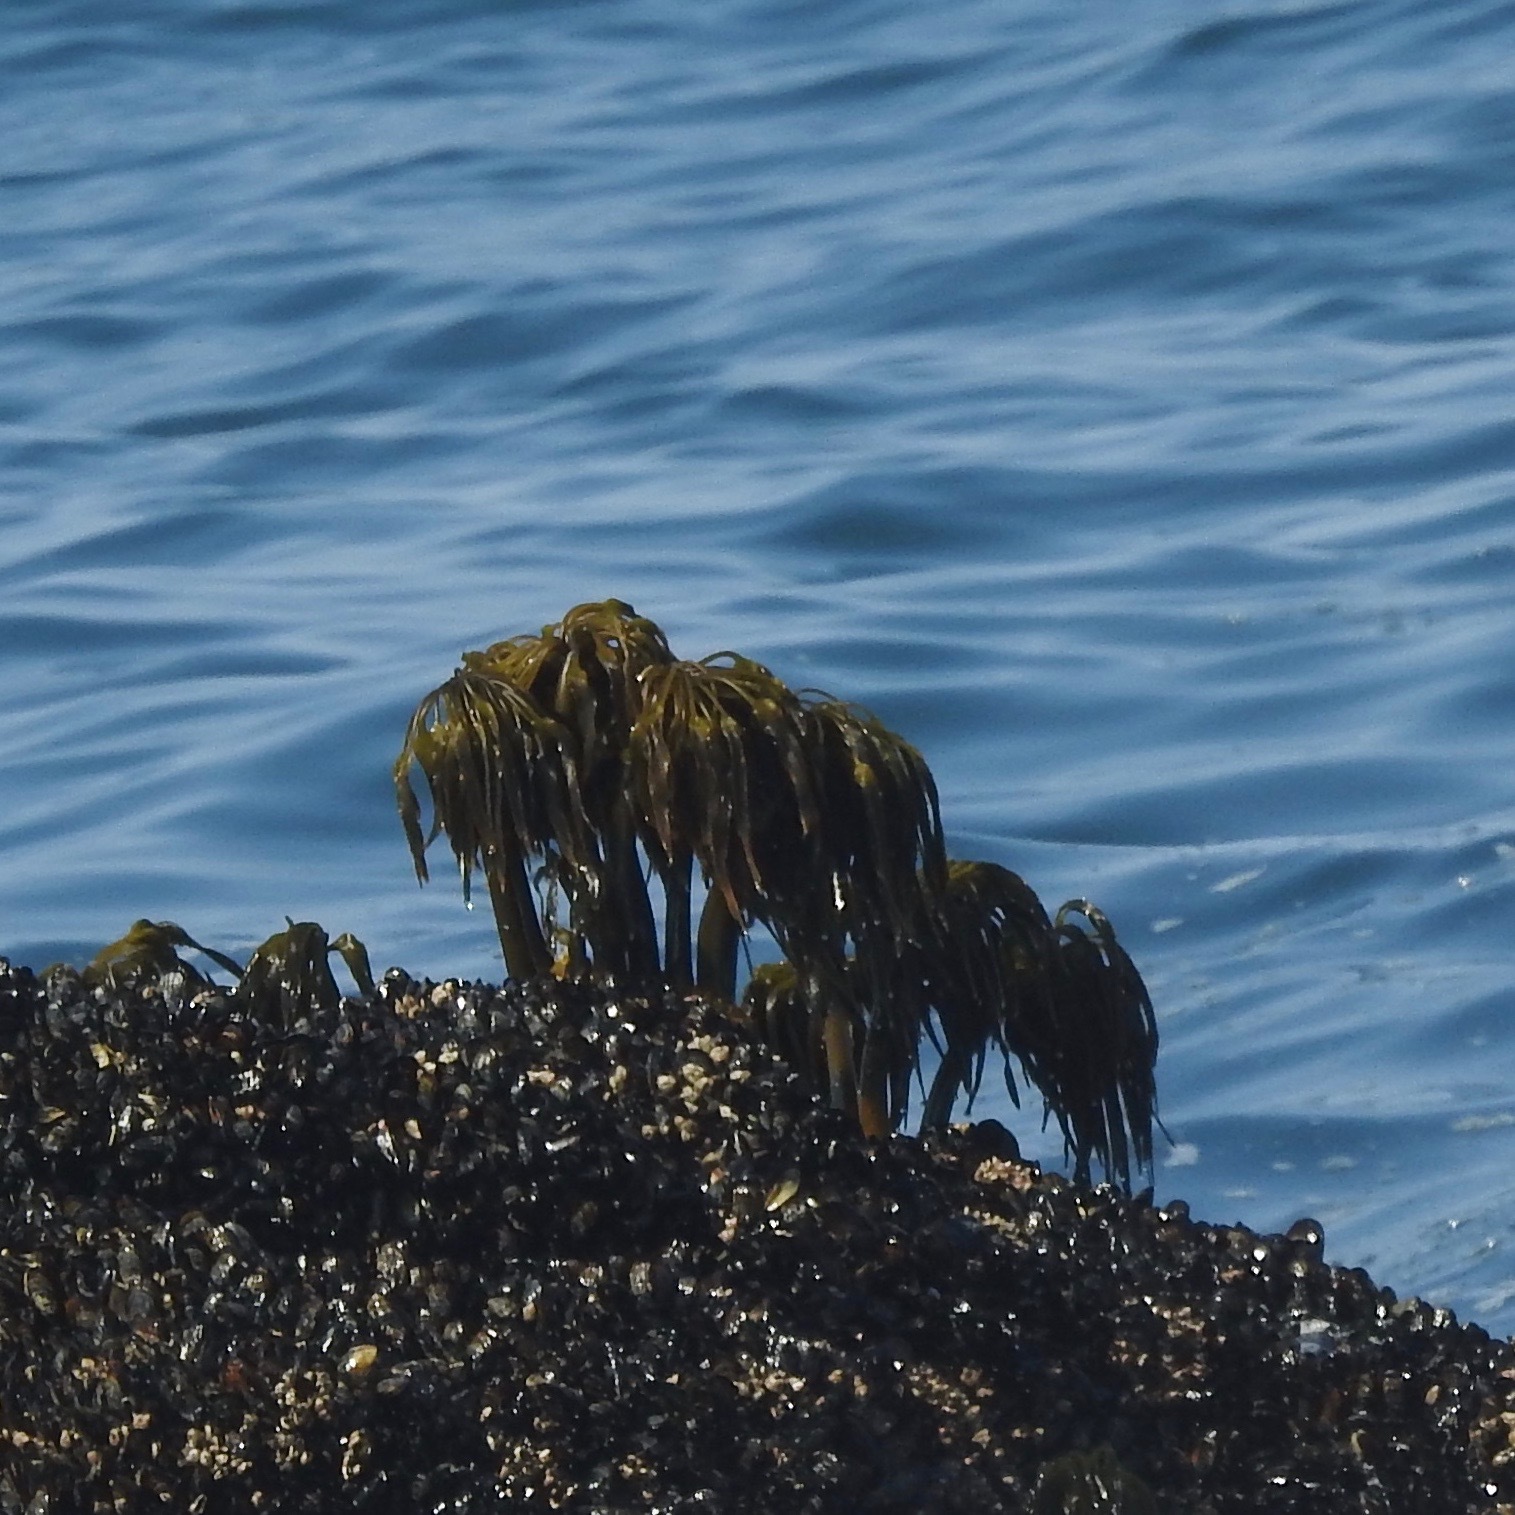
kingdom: Chromista
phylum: Ochrophyta
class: Phaeophyceae
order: Laminariales
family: Laminariaceae
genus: Postelsia
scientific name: Postelsia palmiformis
